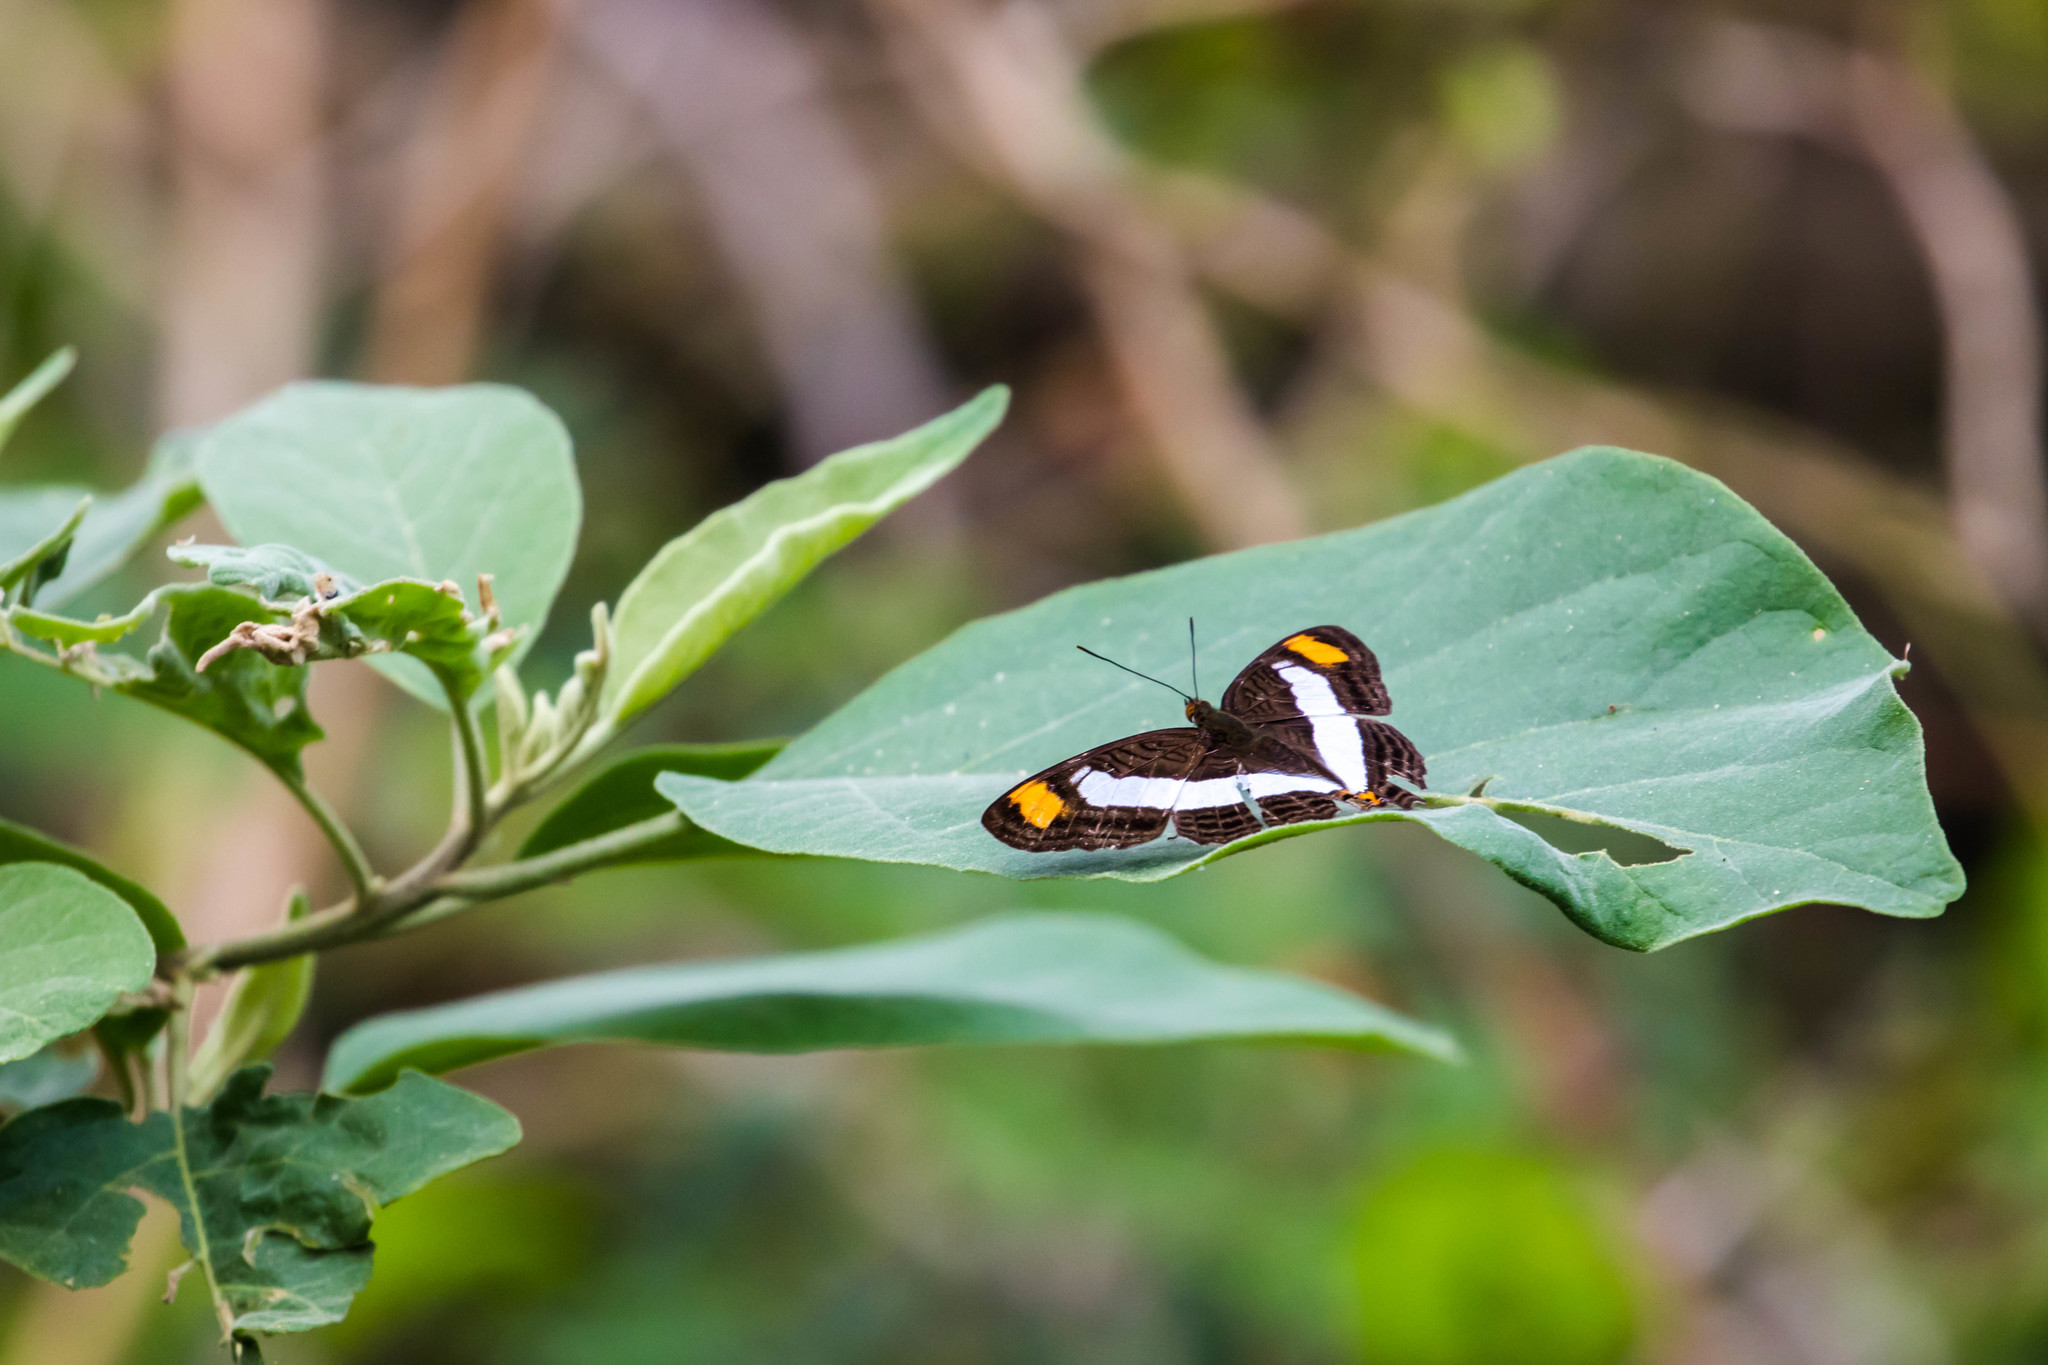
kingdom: Animalia
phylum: Arthropoda
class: Insecta
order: Lepidoptera
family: Nymphalidae
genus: Limenitis
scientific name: Limenitis Adelpha basiloides
